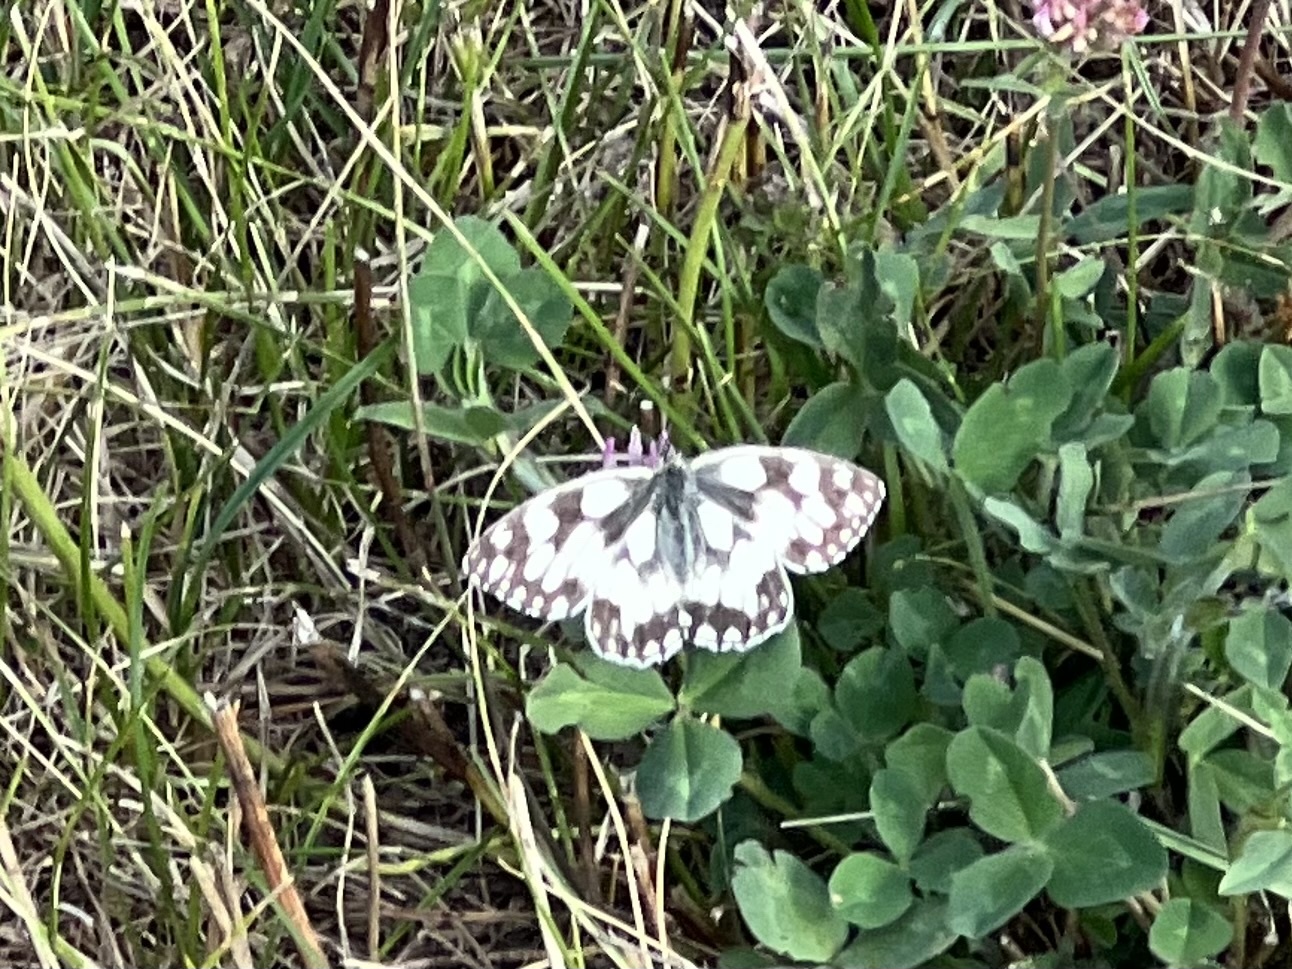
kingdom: Animalia
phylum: Arthropoda
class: Insecta
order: Lepidoptera
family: Nymphalidae
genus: Melanargia
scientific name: Melanargia galathea
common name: Marbled white
